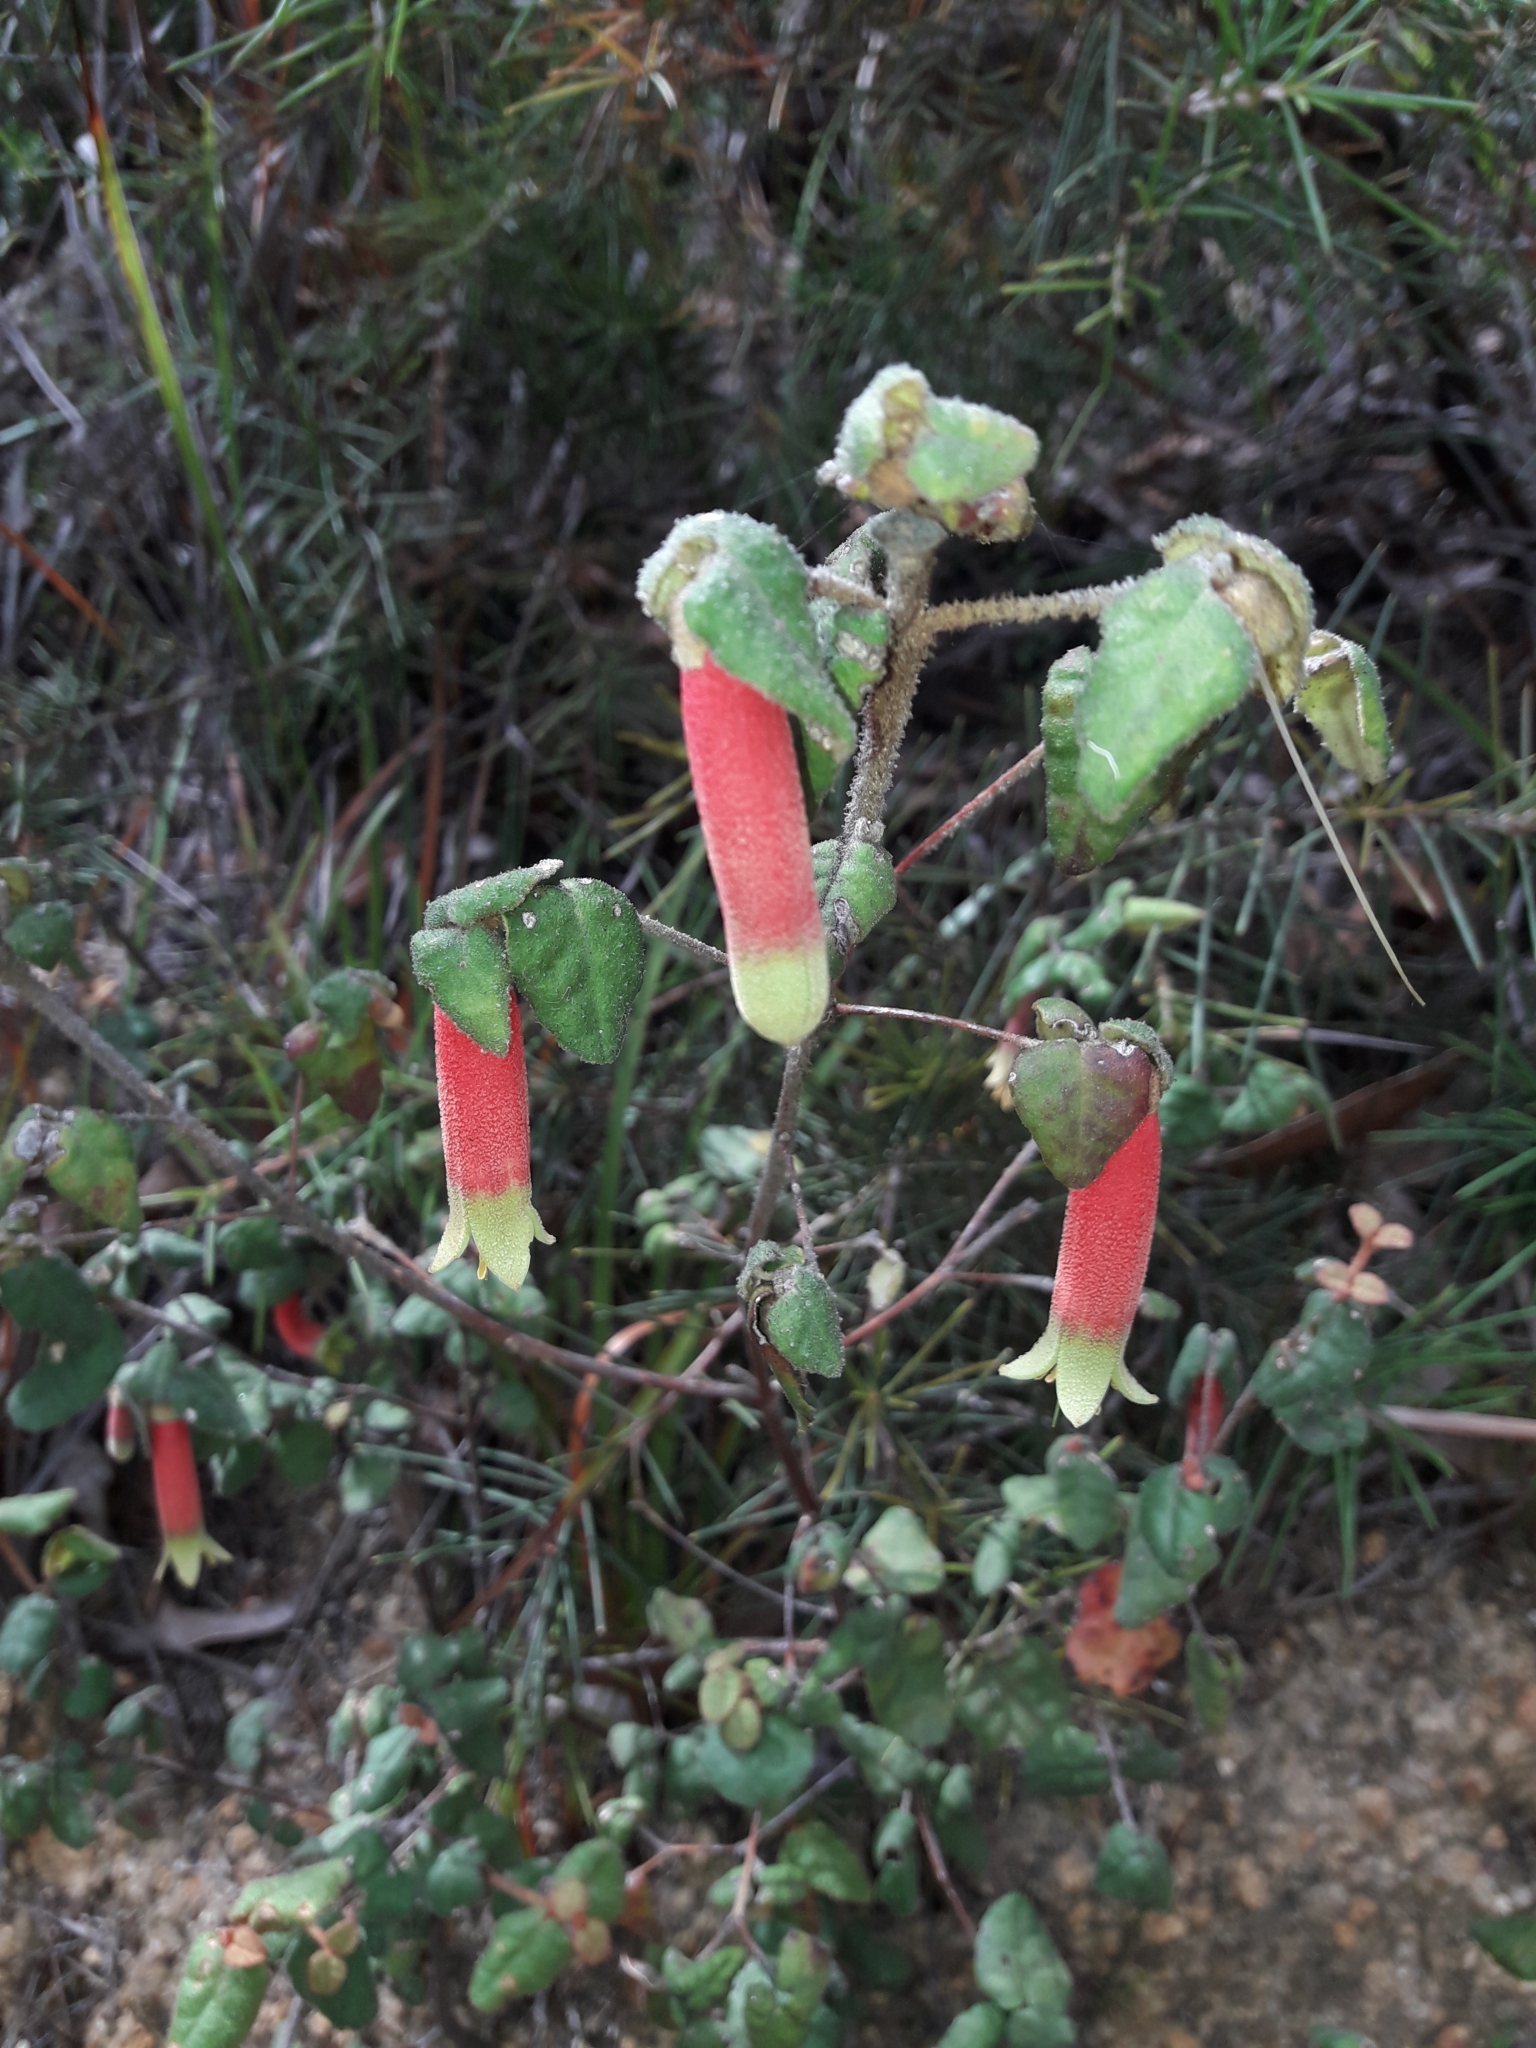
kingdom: Plantae
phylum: Tracheophyta
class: Magnoliopsida
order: Sapindales
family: Rutaceae
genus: Correa
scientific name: Correa reflexa
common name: Common correa
